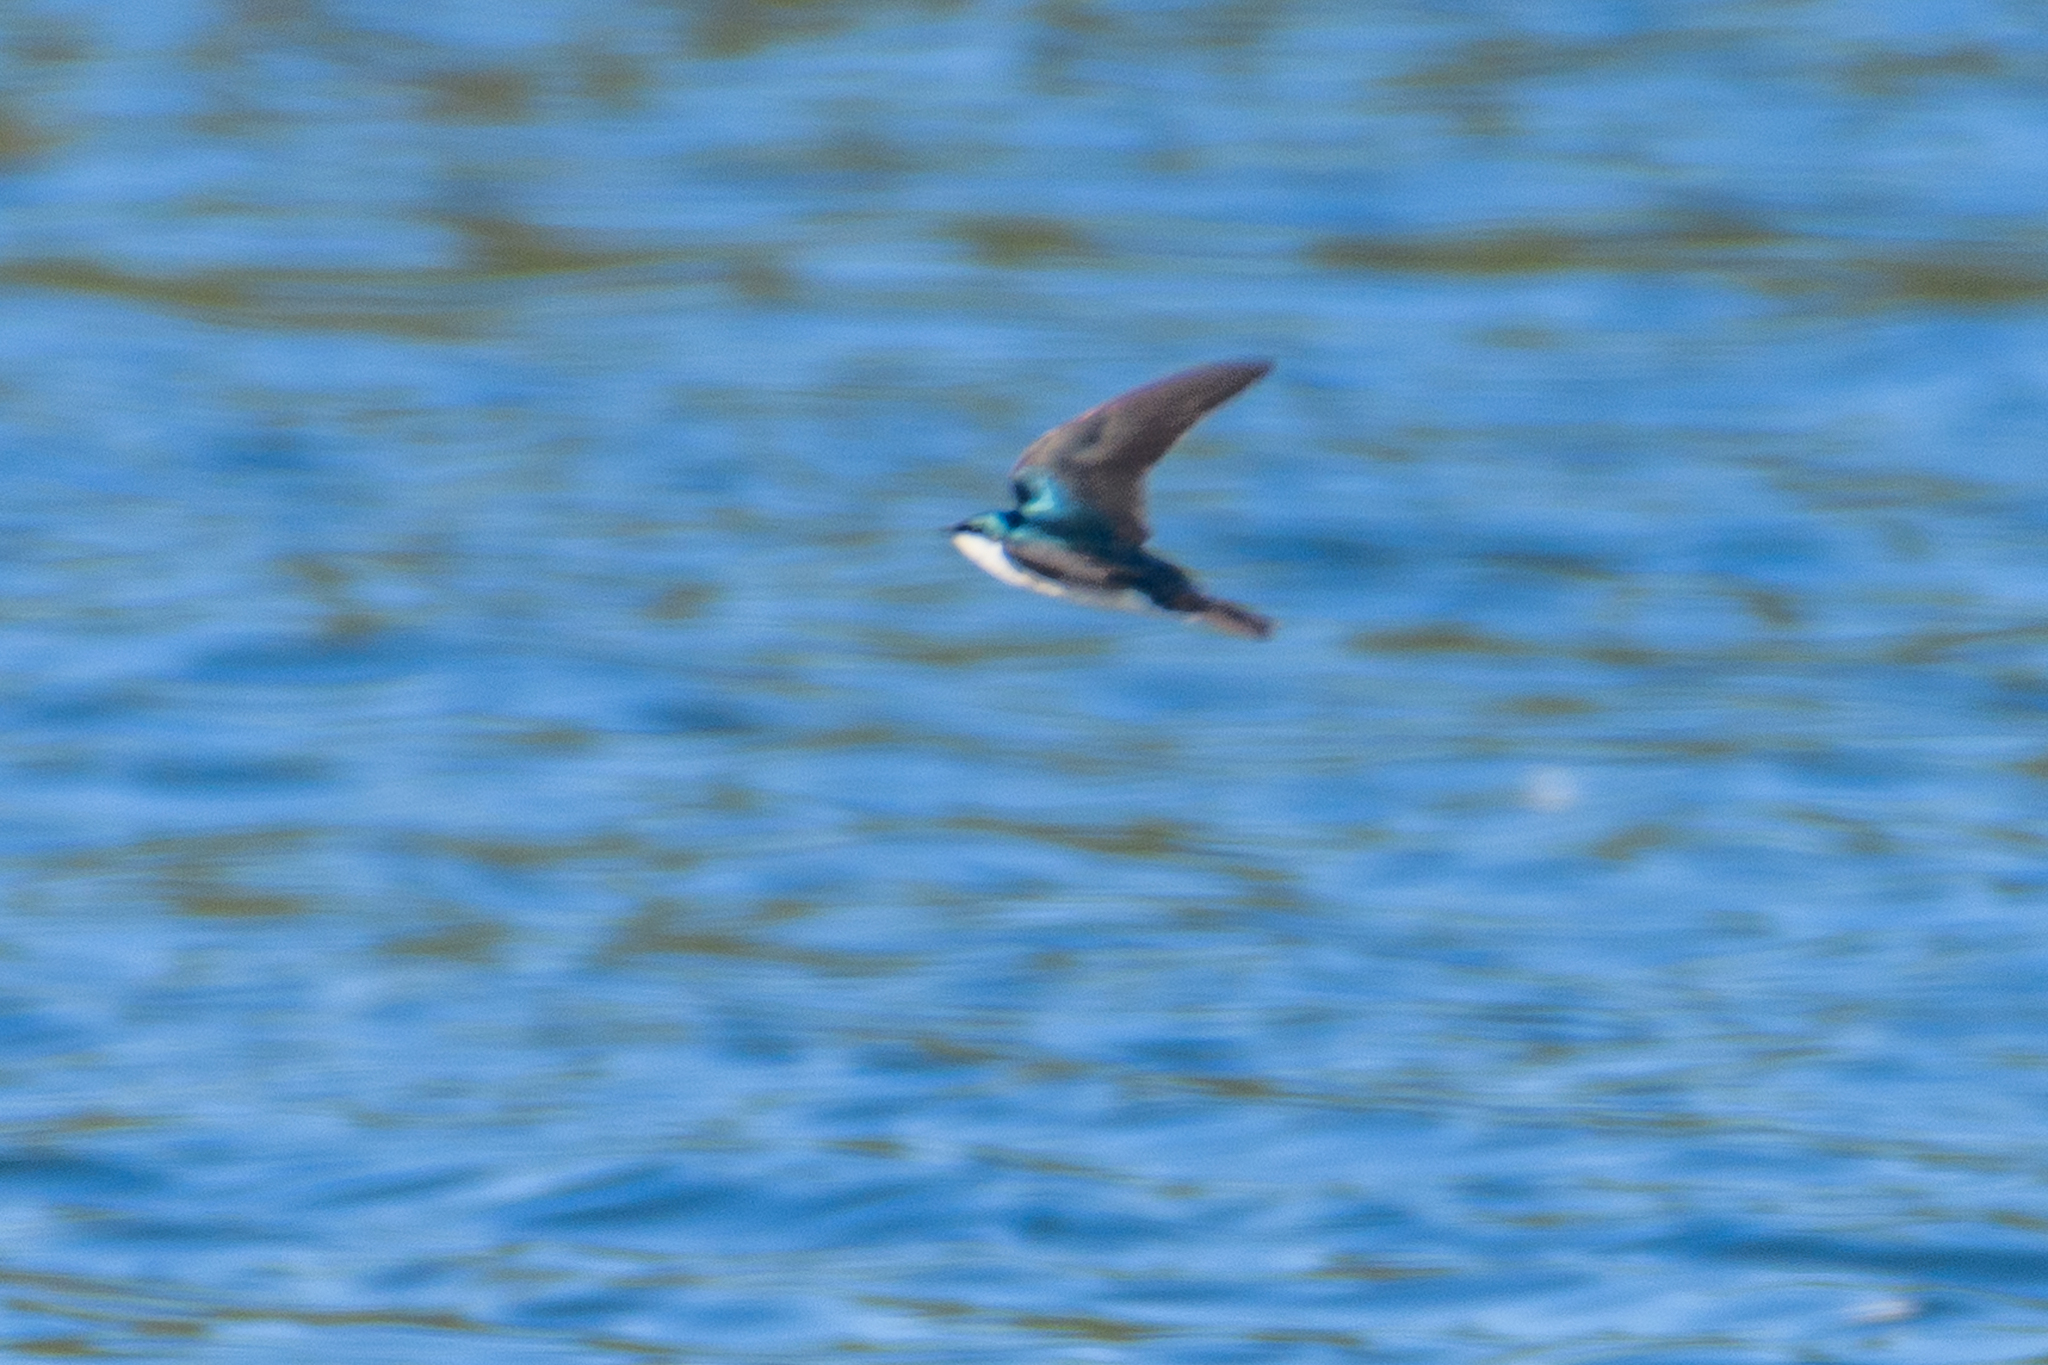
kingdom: Animalia
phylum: Chordata
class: Aves
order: Passeriformes
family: Hirundinidae
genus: Tachycineta
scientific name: Tachycineta bicolor
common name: Tree swallow
